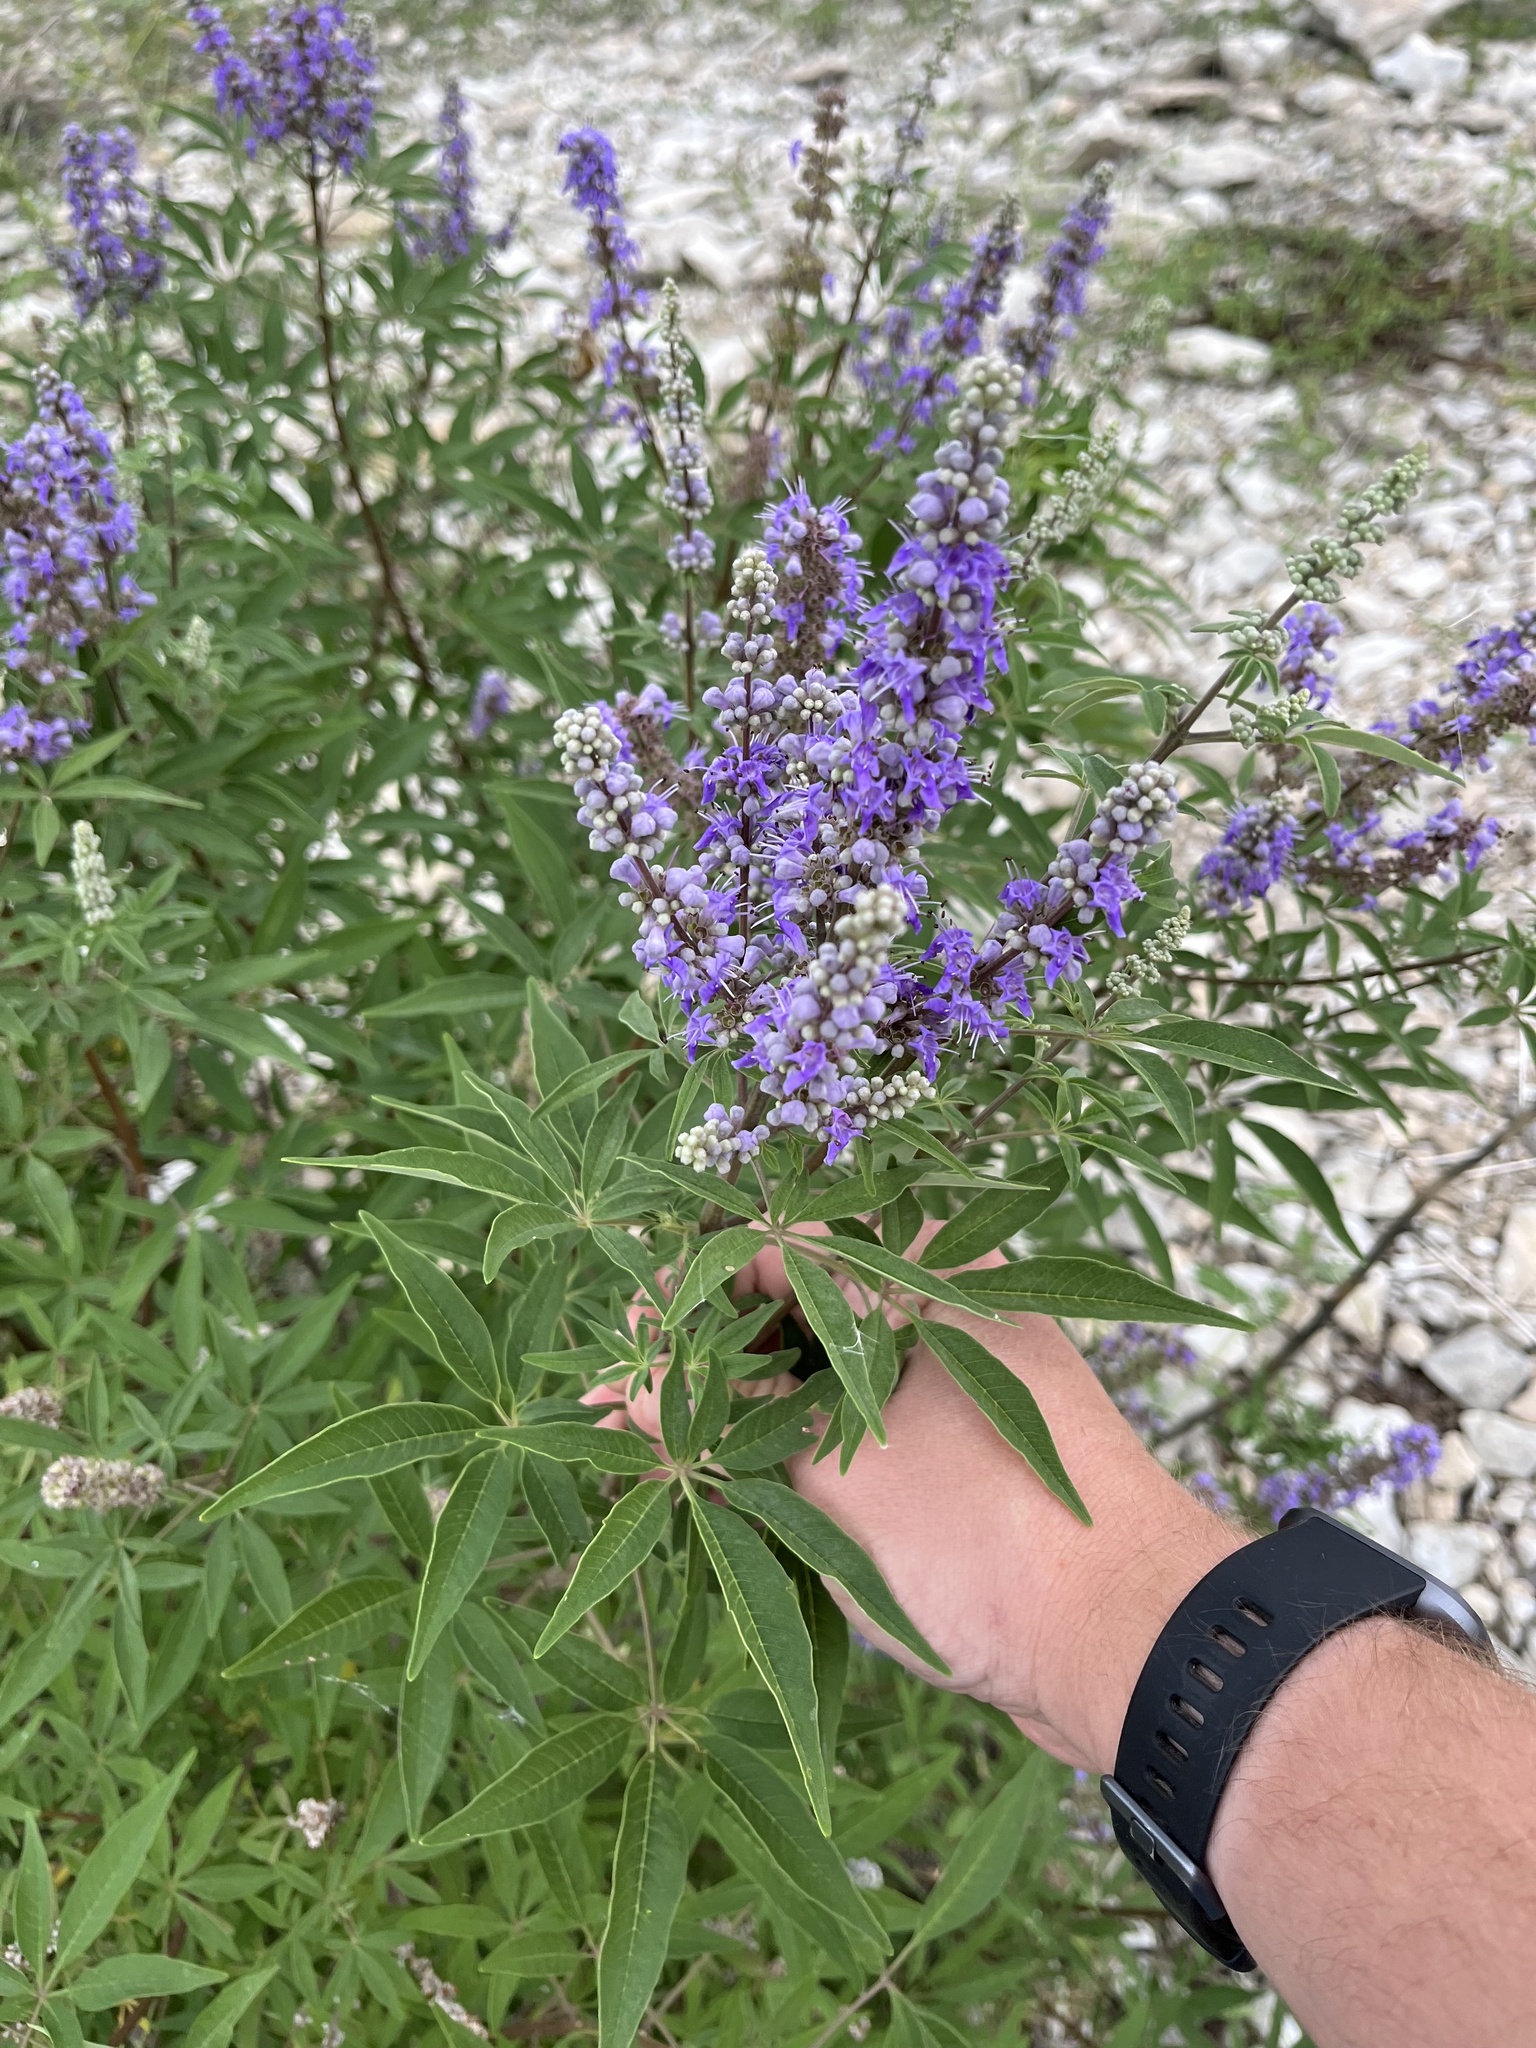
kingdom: Plantae
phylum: Tracheophyta
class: Magnoliopsida
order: Lamiales
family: Lamiaceae
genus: Vitex
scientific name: Vitex agnus-castus
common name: Chasteberry
